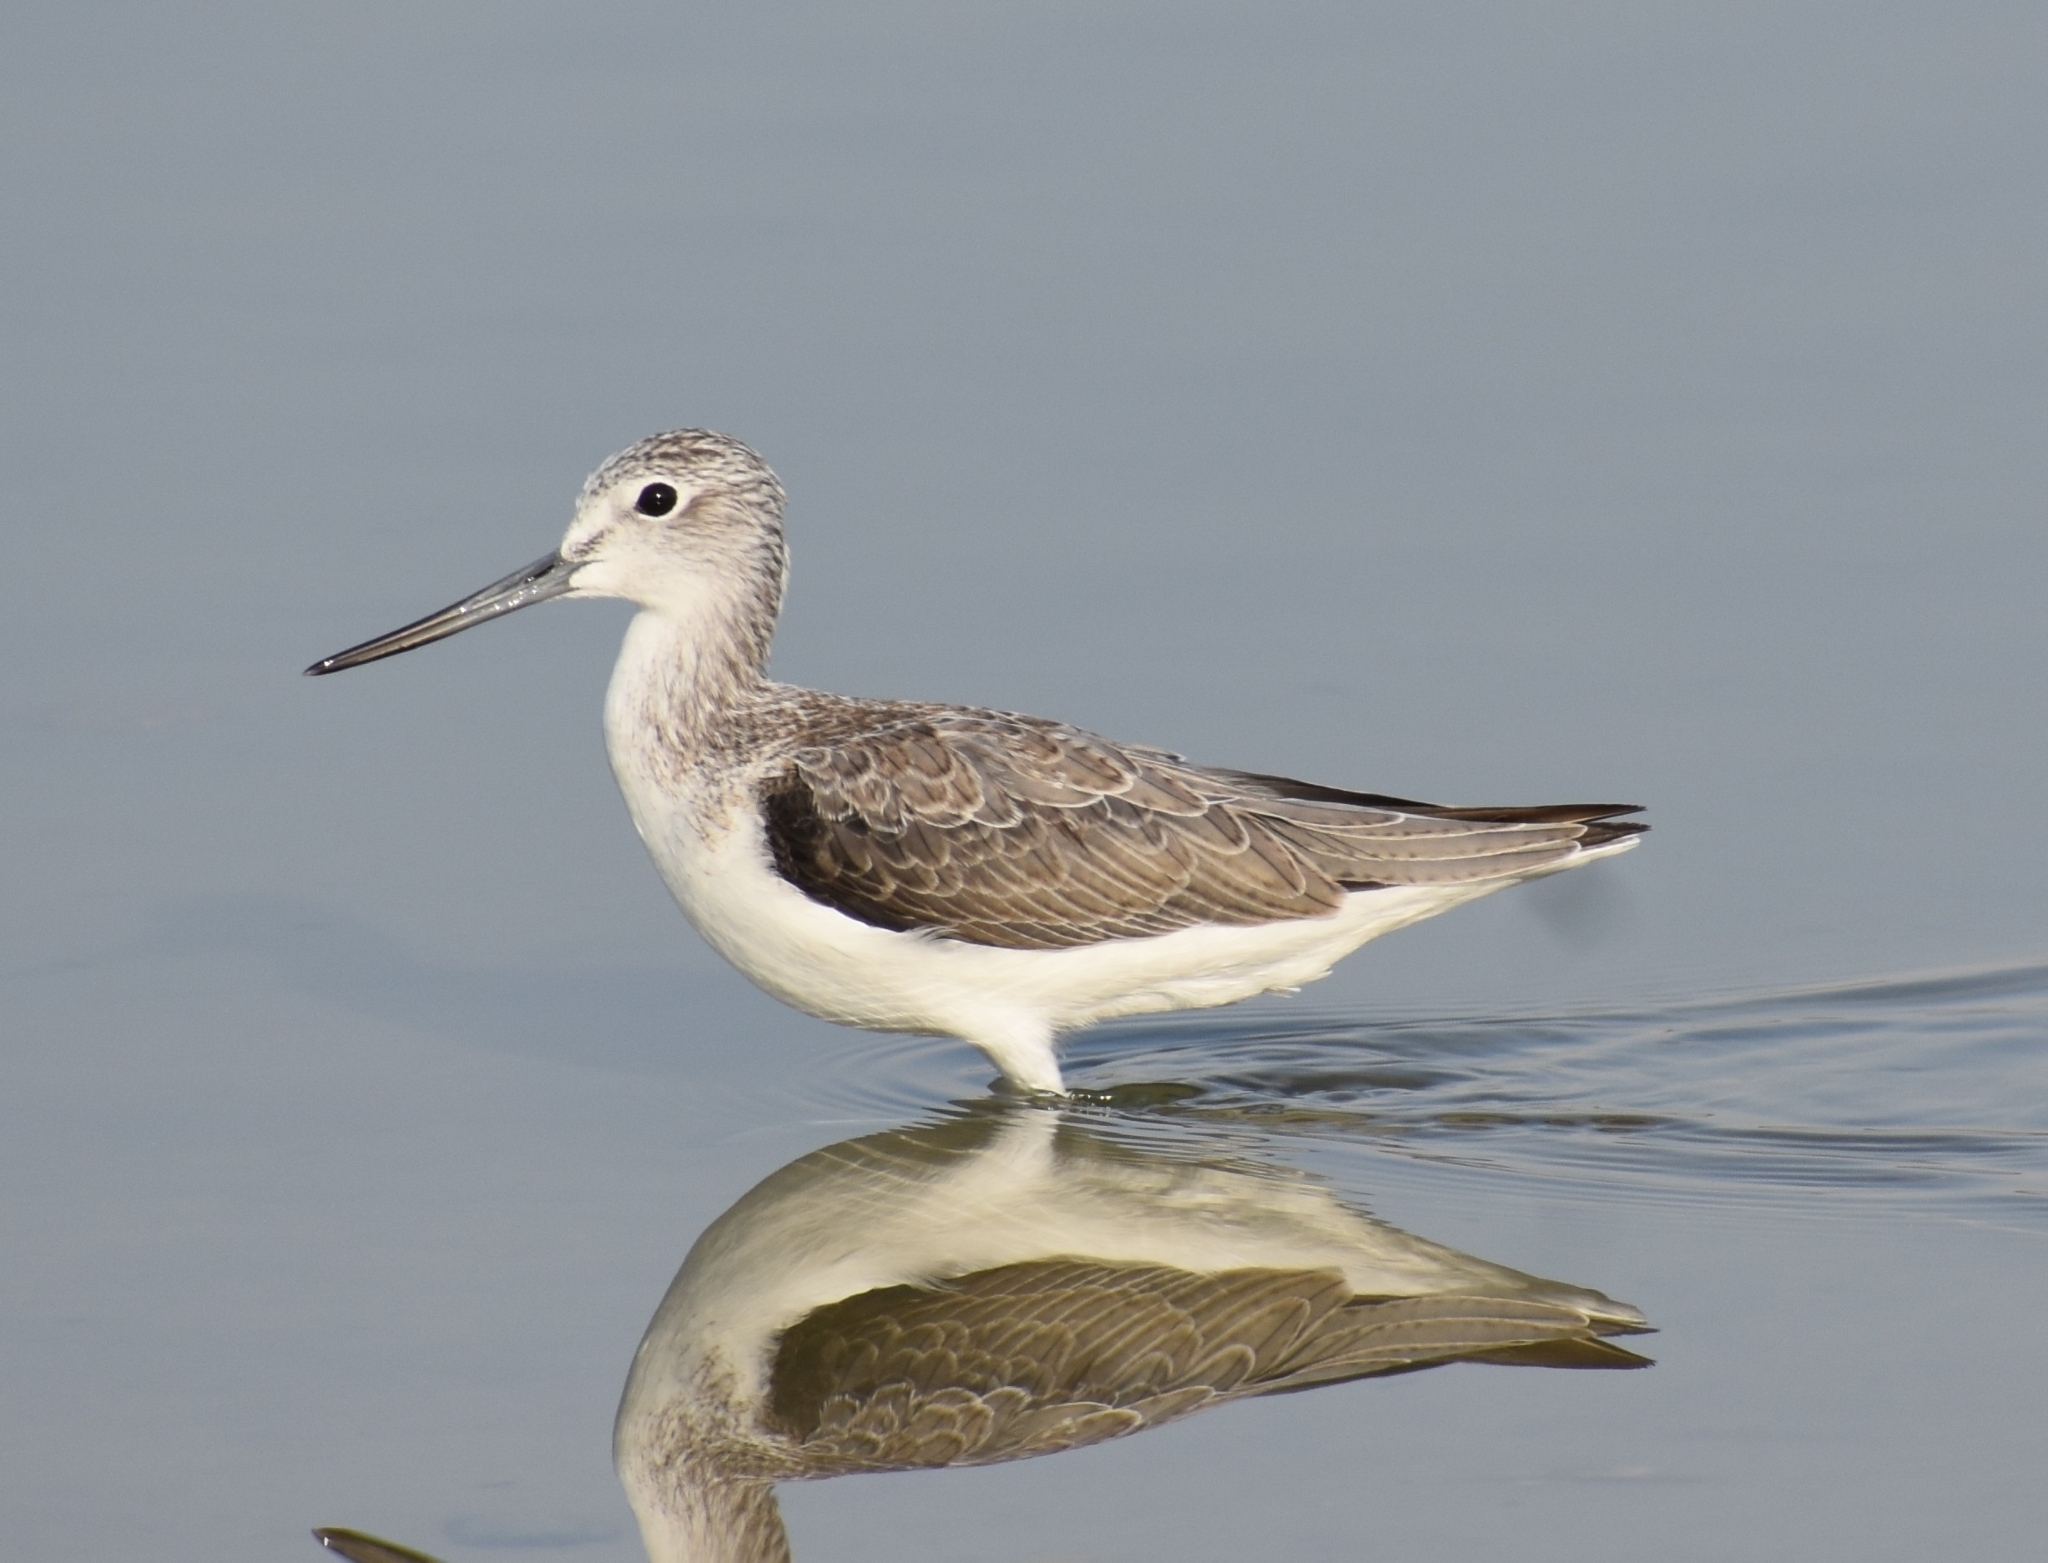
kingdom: Animalia
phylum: Chordata
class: Aves
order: Charadriiformes
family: Scolopacidae
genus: Tringa
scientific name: Tringa nebularia
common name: Common greenshank
